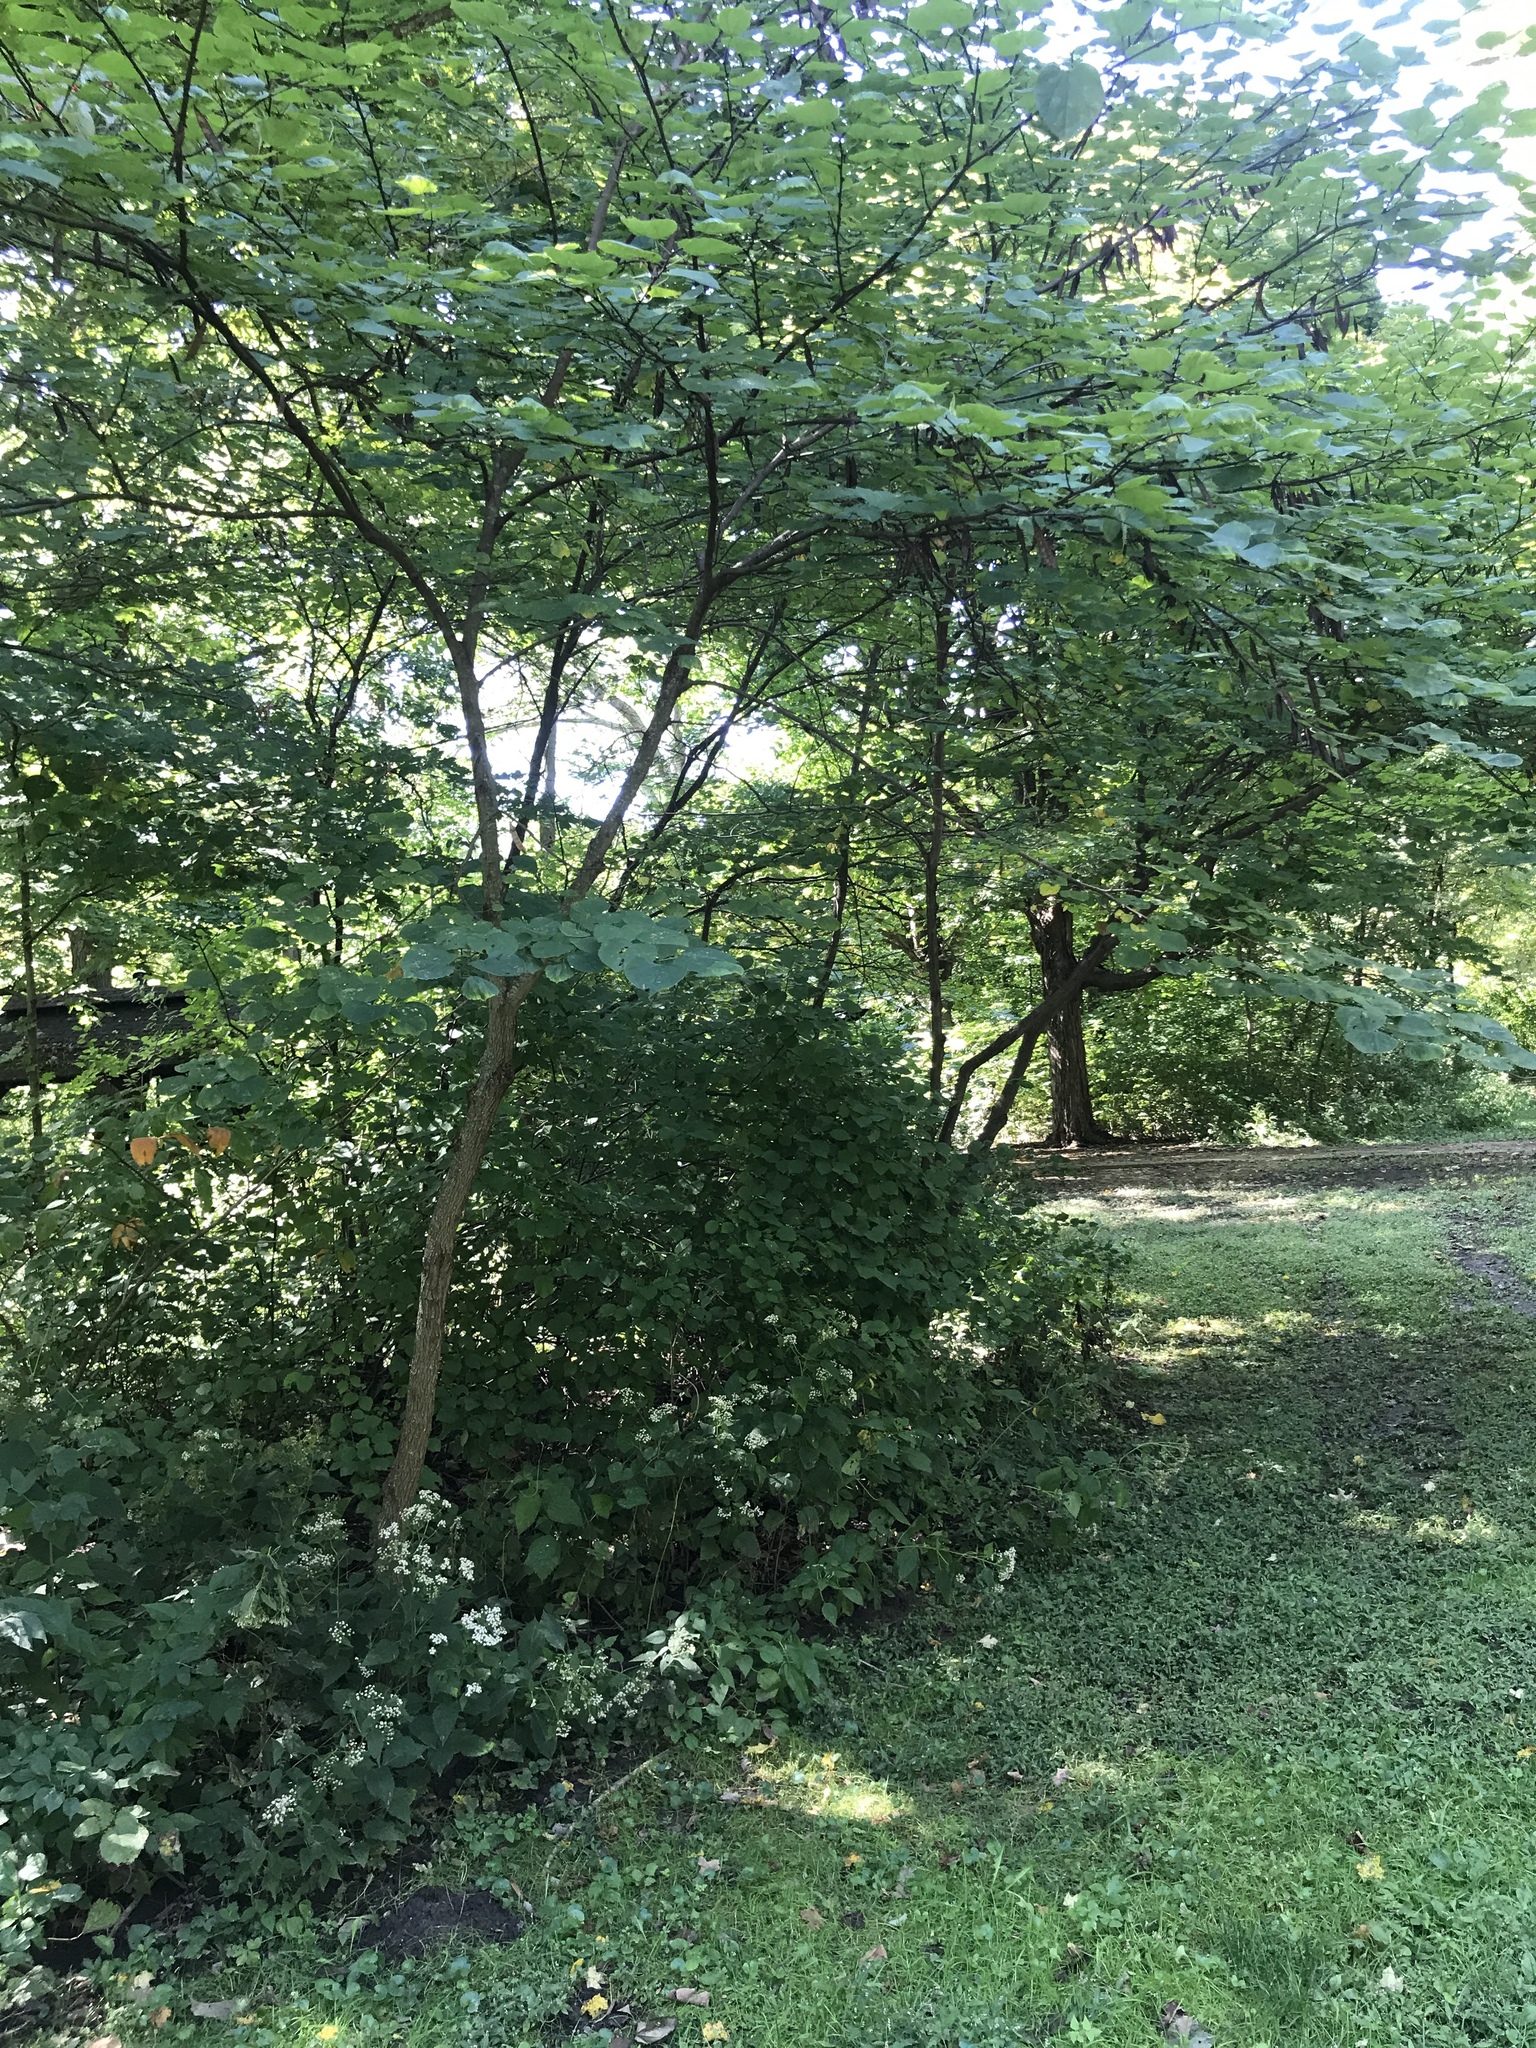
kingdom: Plantae
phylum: Tracheophyta
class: Magnoliopsida
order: Fabales
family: Fabaceae
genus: Cercis
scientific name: Cercis canadensis
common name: Eastern redbud
